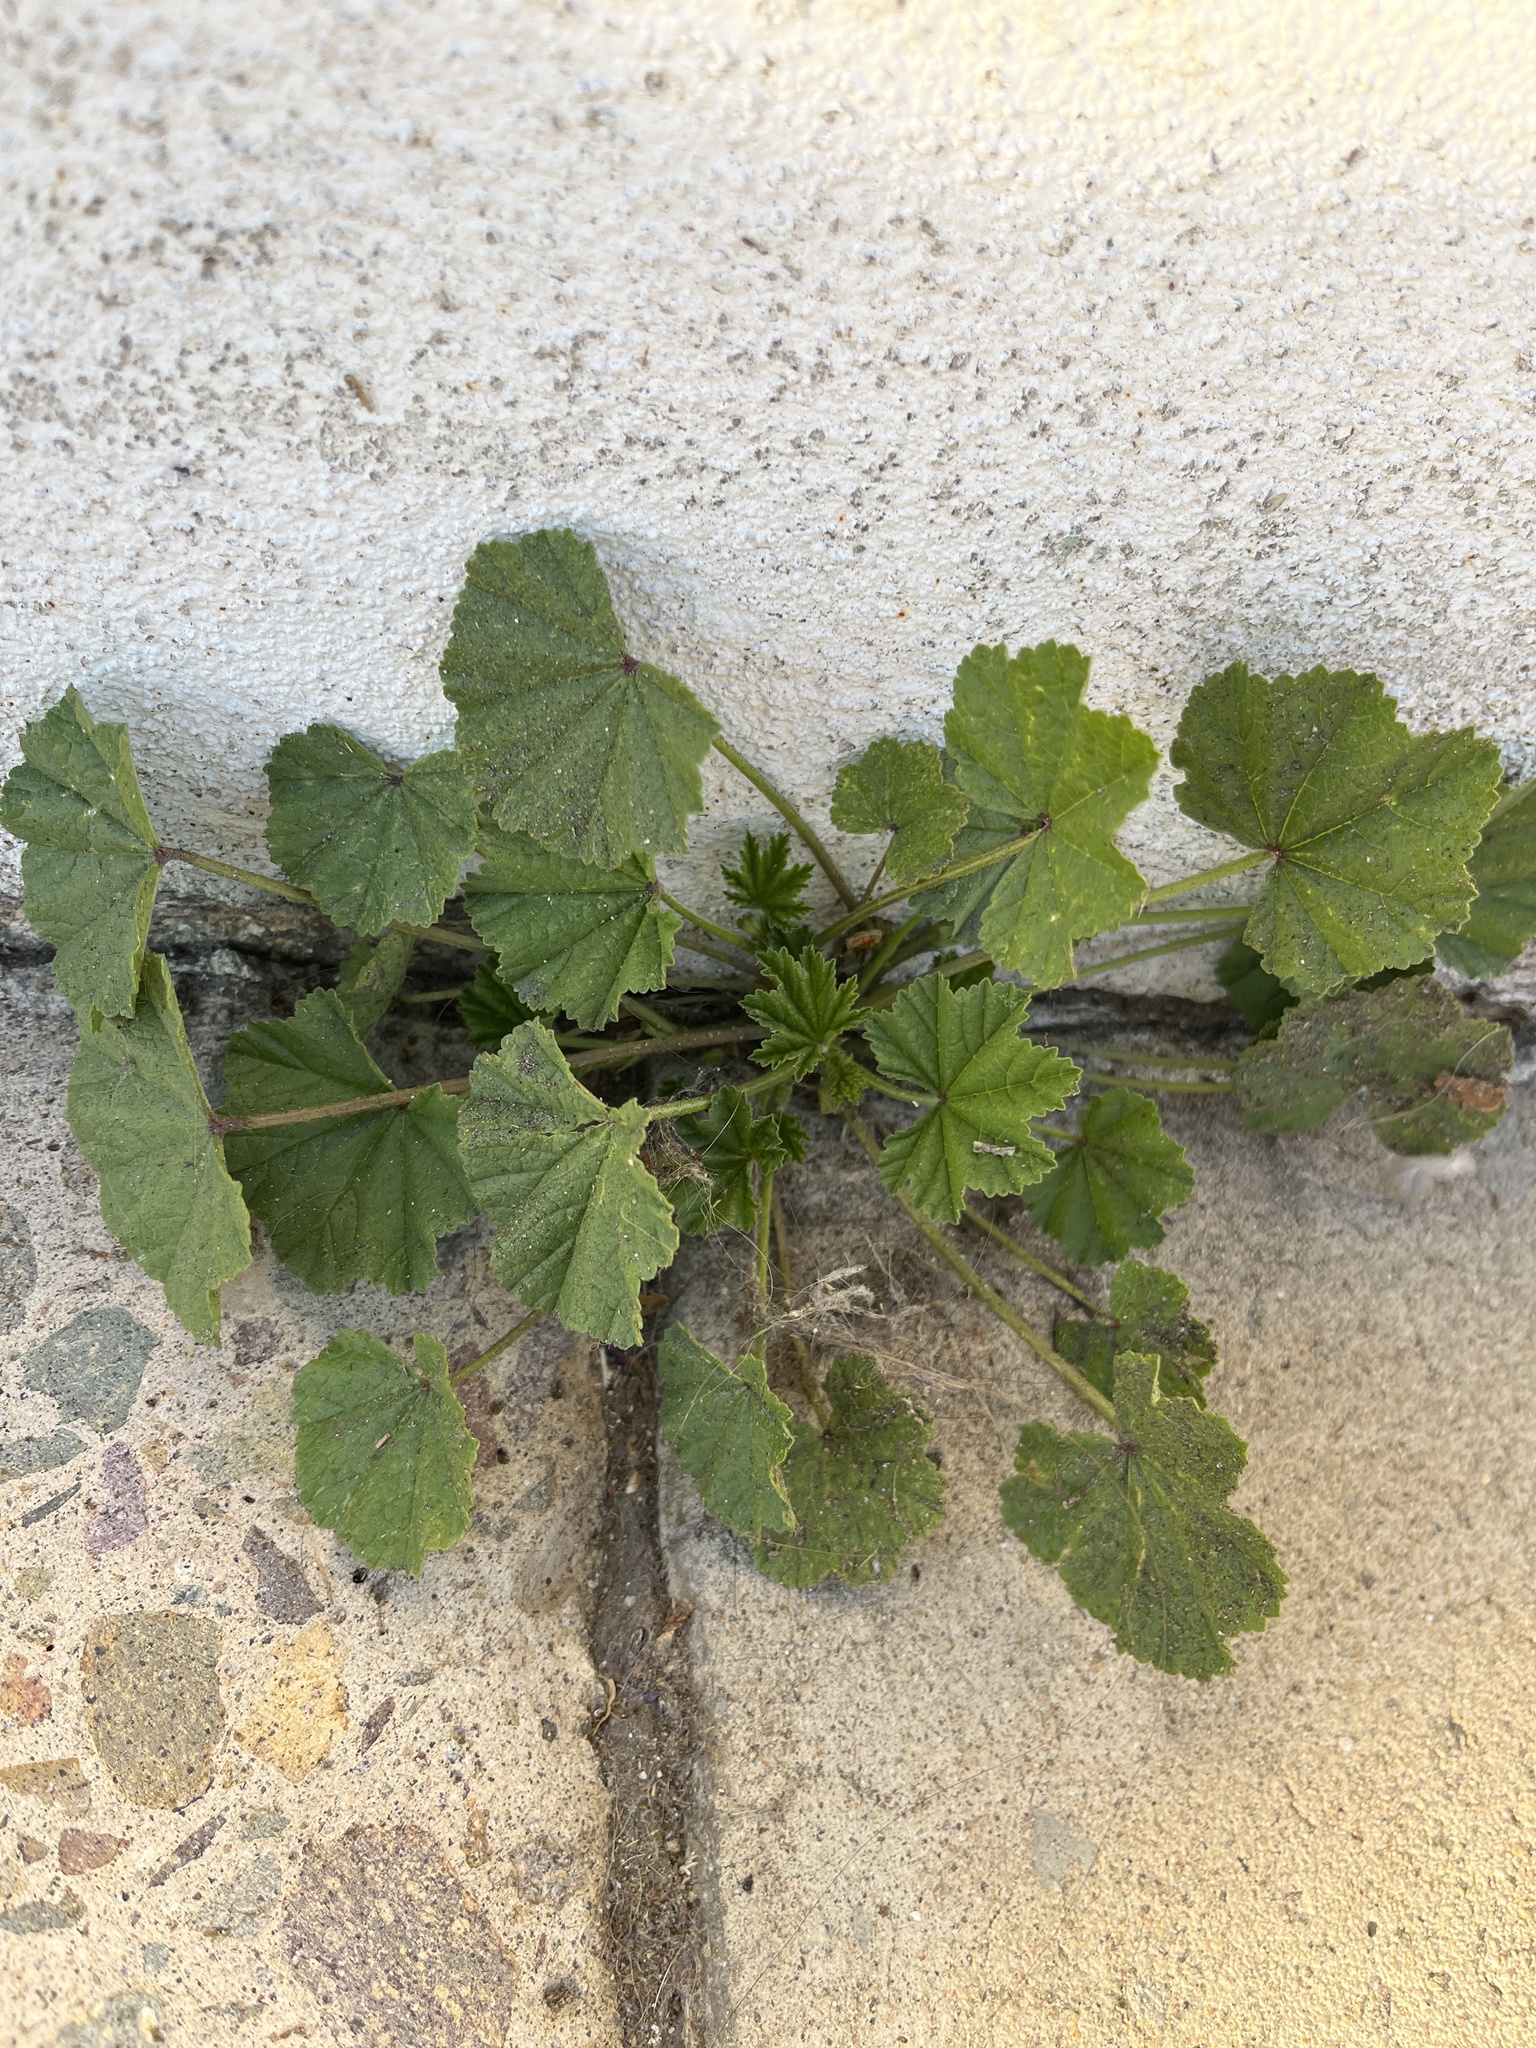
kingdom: Plantae
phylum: Tracheophyta
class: Magnoliopsida
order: Malvales
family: Malvaceae
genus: Malva
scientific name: Malva
